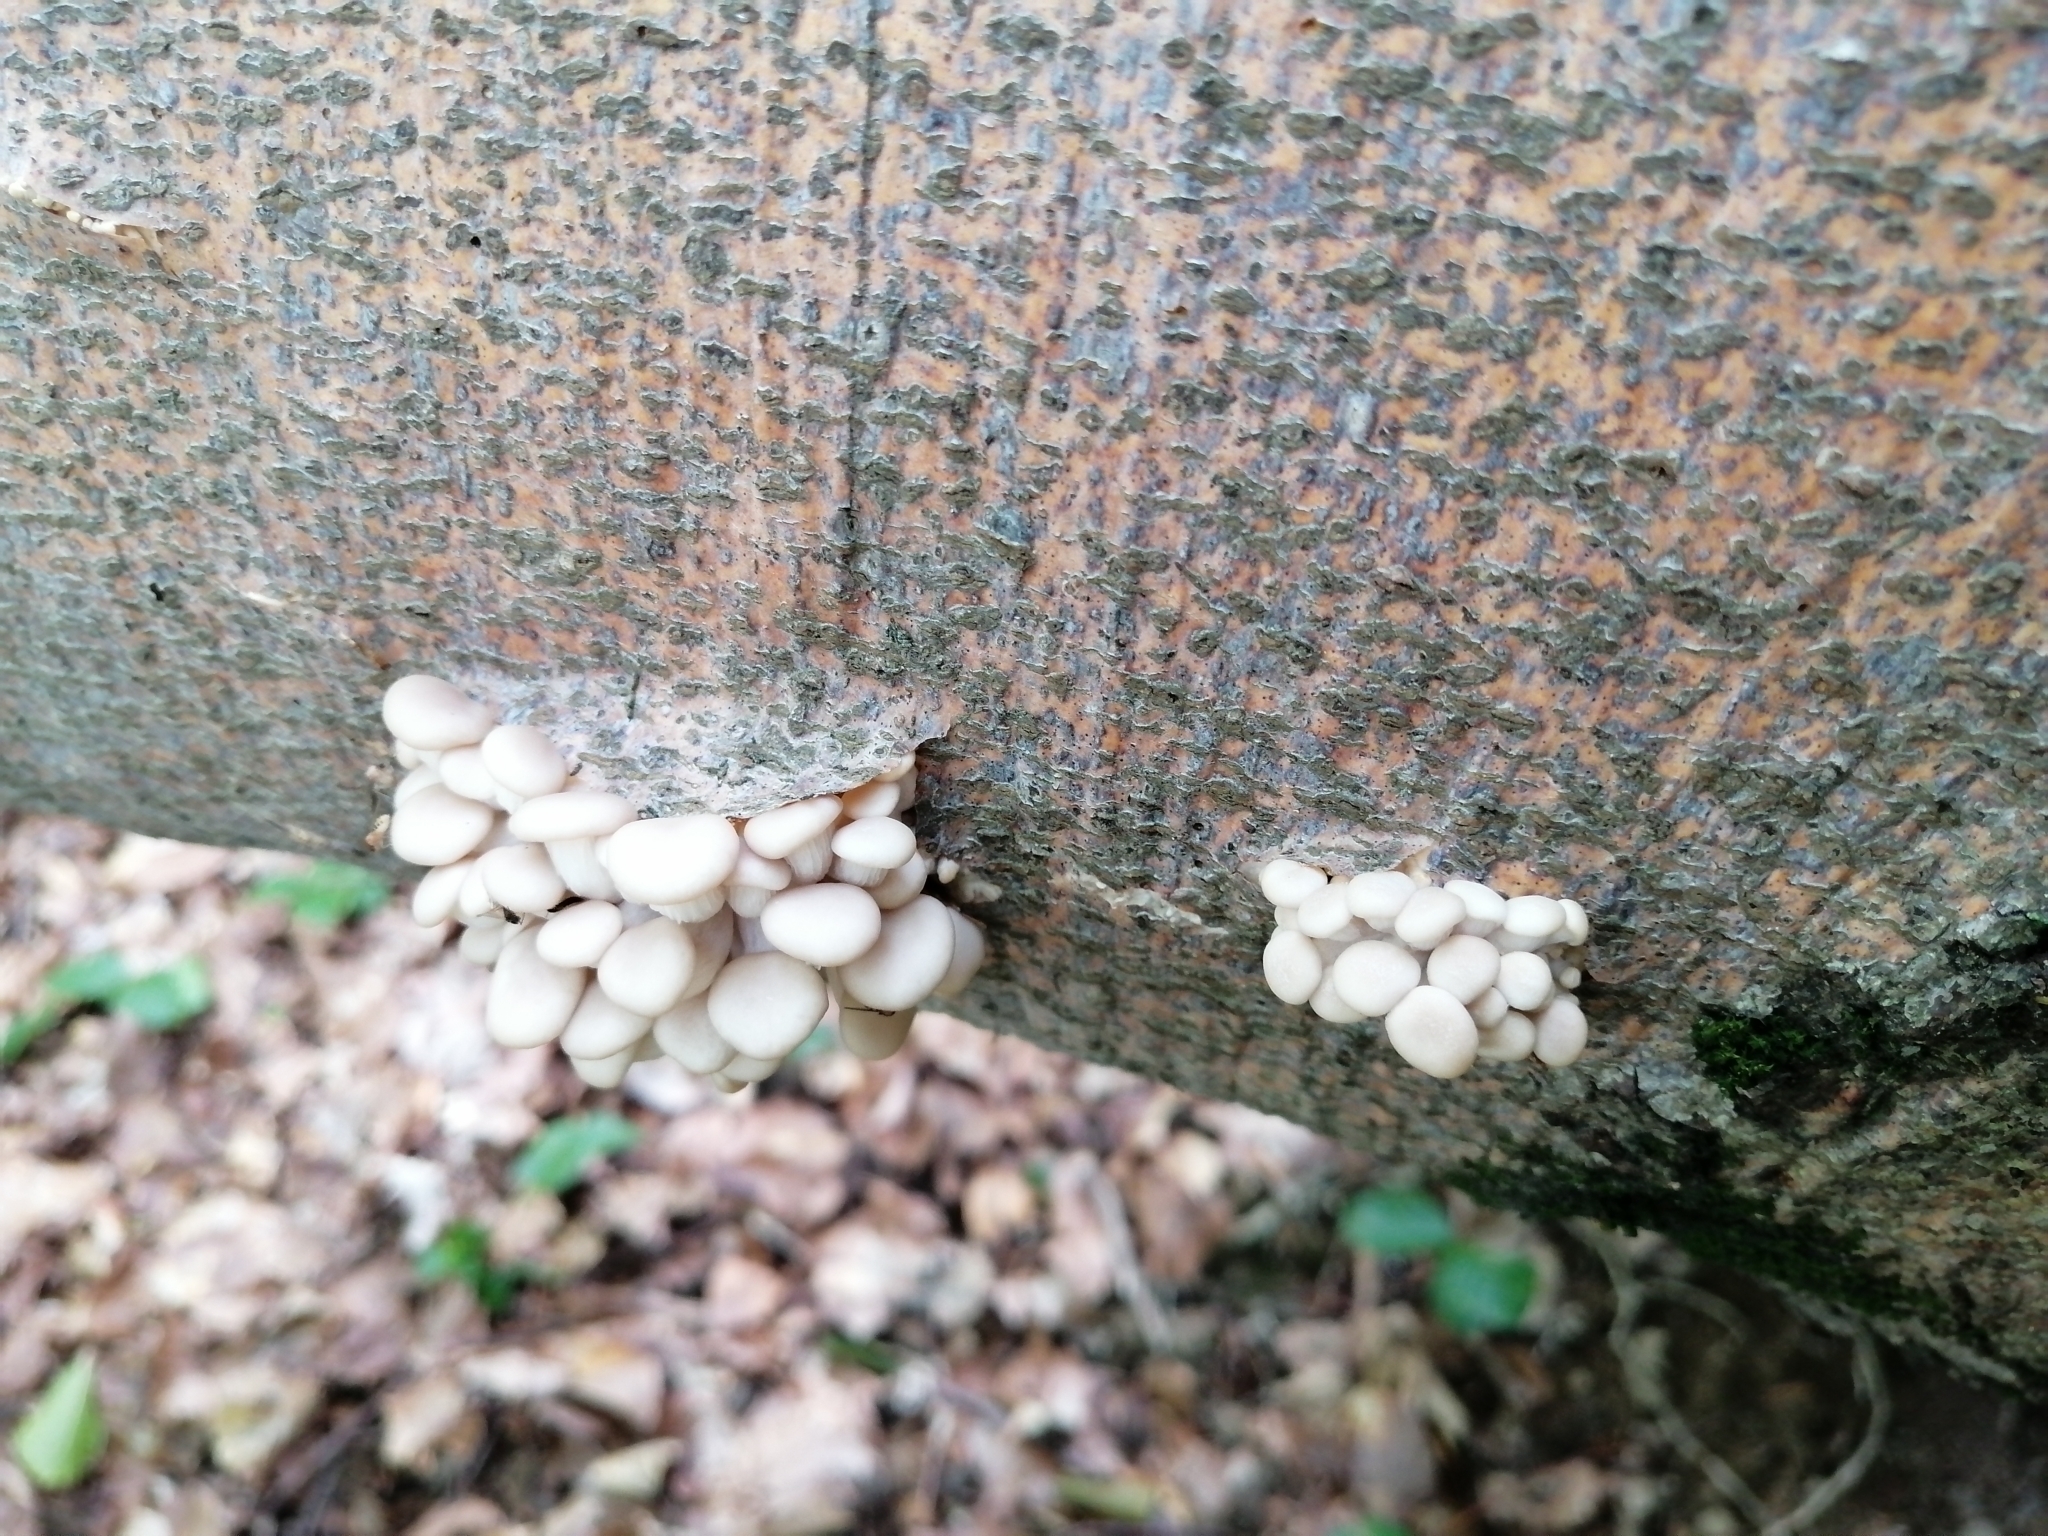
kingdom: Fungi
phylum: Basidiomycota
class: Agaricomycetes
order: Agaricales
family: Pleurotaceae
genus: Pleurotus
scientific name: Pleurotus pulmonarius
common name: Pale oyster
